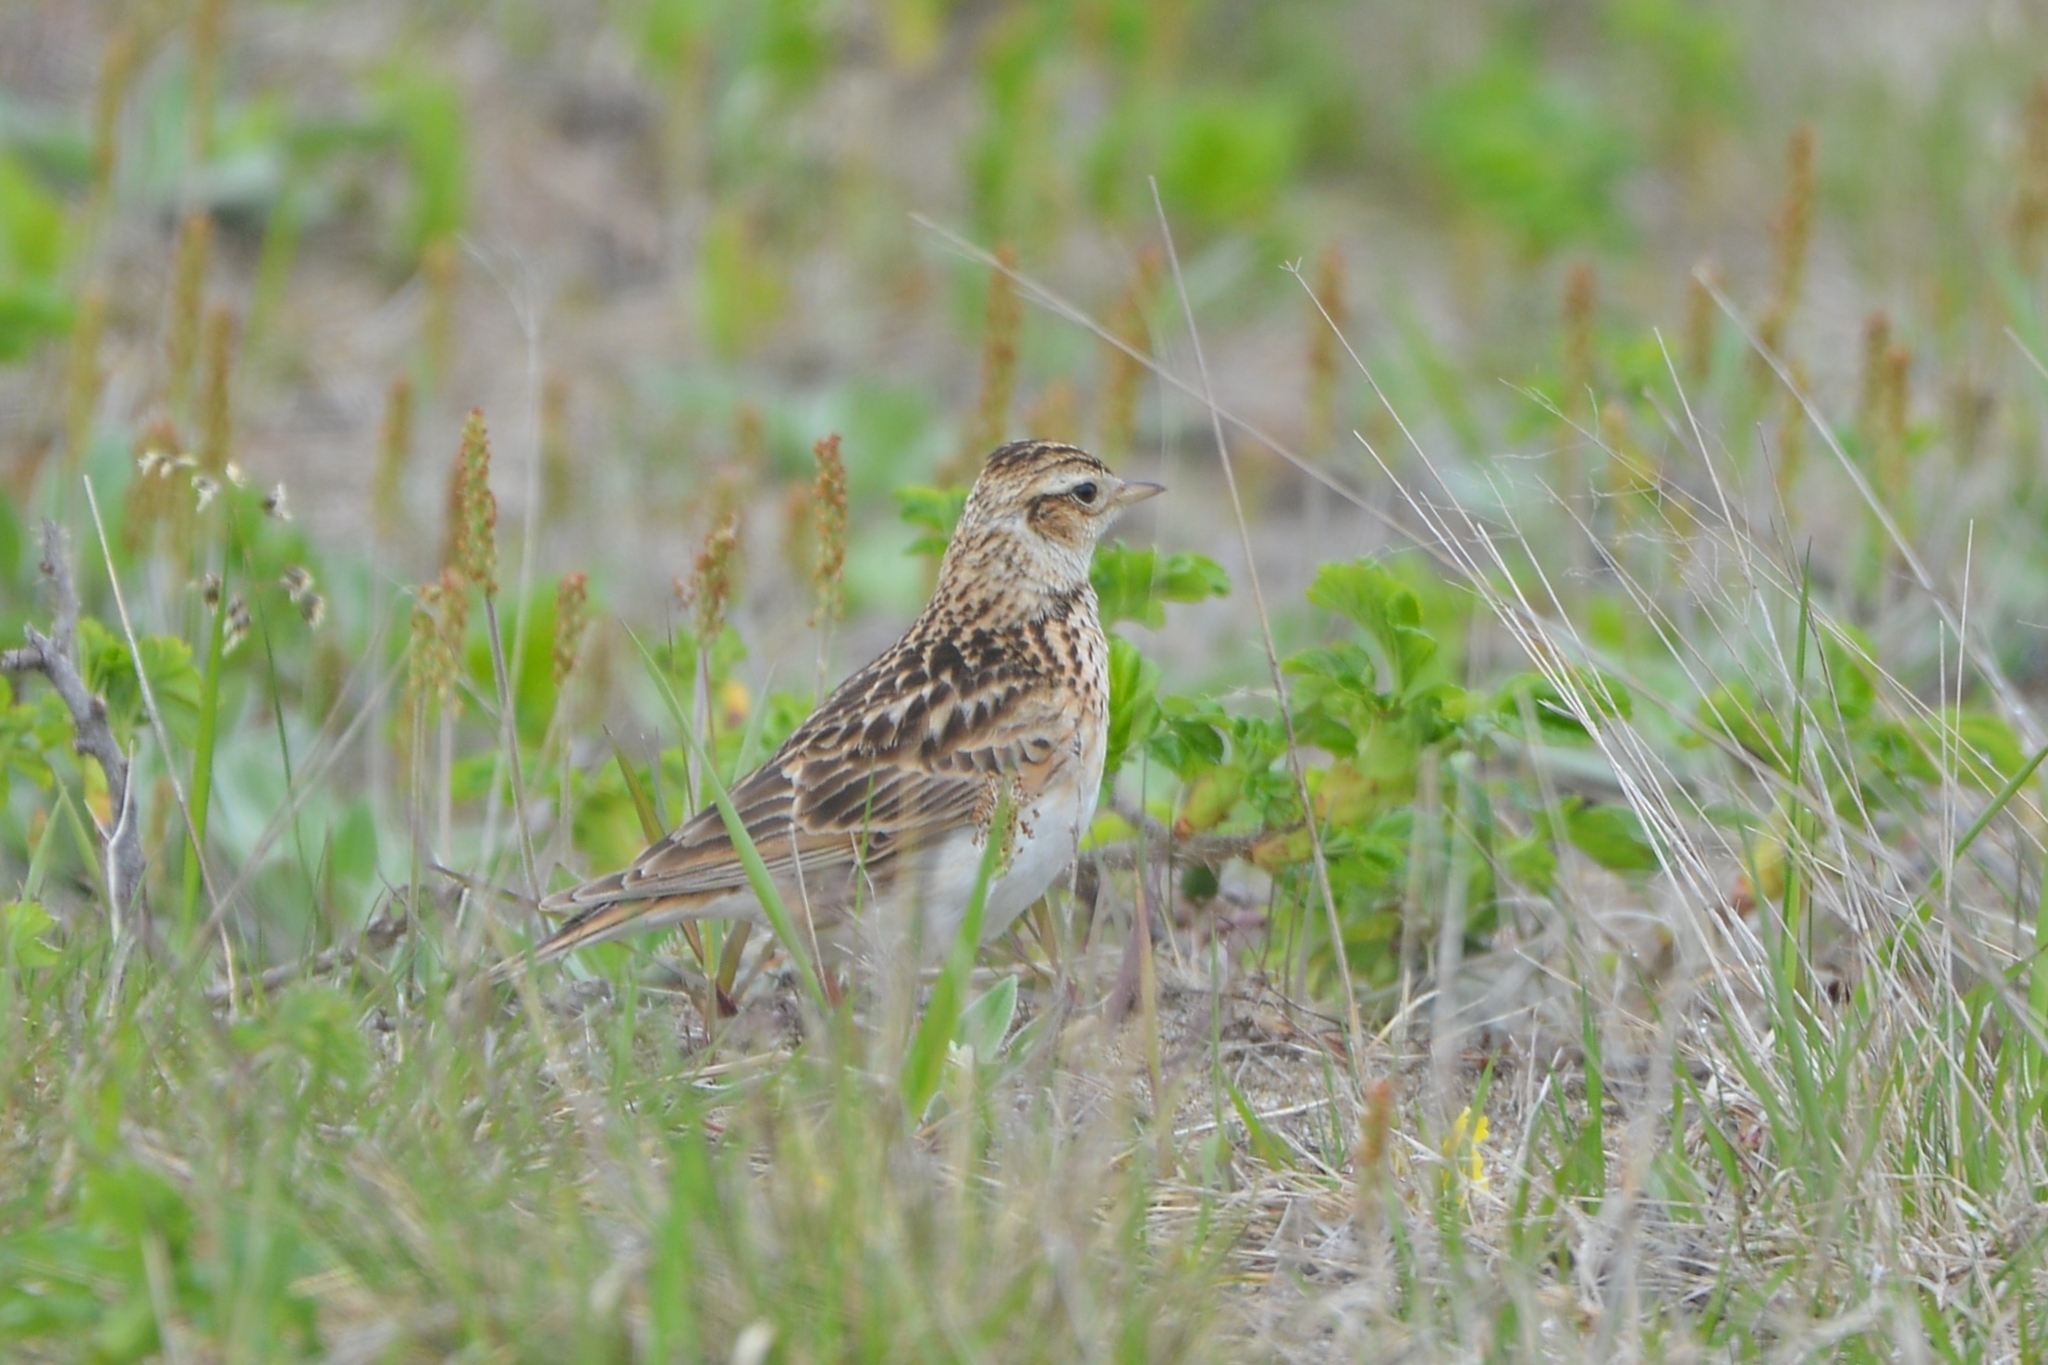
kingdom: Animalia
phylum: Chordata
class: Aves
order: Passeriformes
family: Alaudidae
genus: Alauda
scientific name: Alauda arvensis
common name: Eurasian skylark
